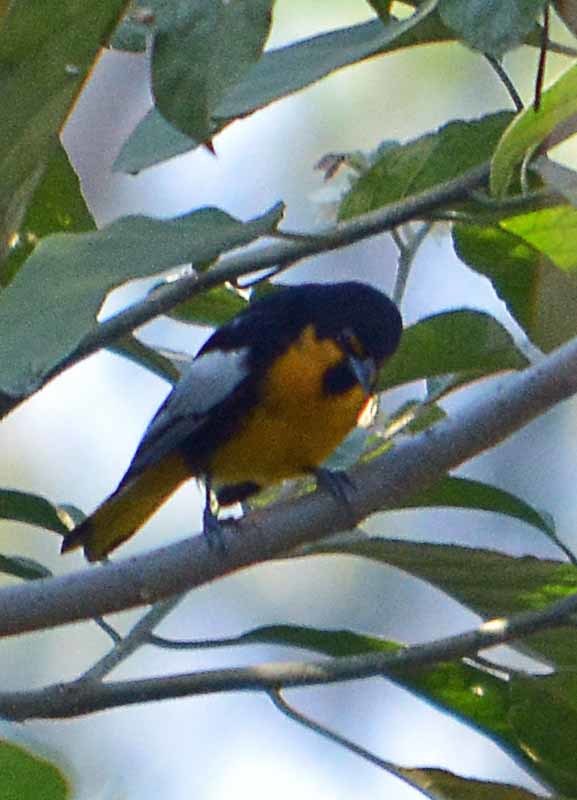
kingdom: Animalia
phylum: Chordata
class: Aves
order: Passeriformes
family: Icteridae
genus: Icterus
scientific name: Icterus abeillei
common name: Black-backed oriole
